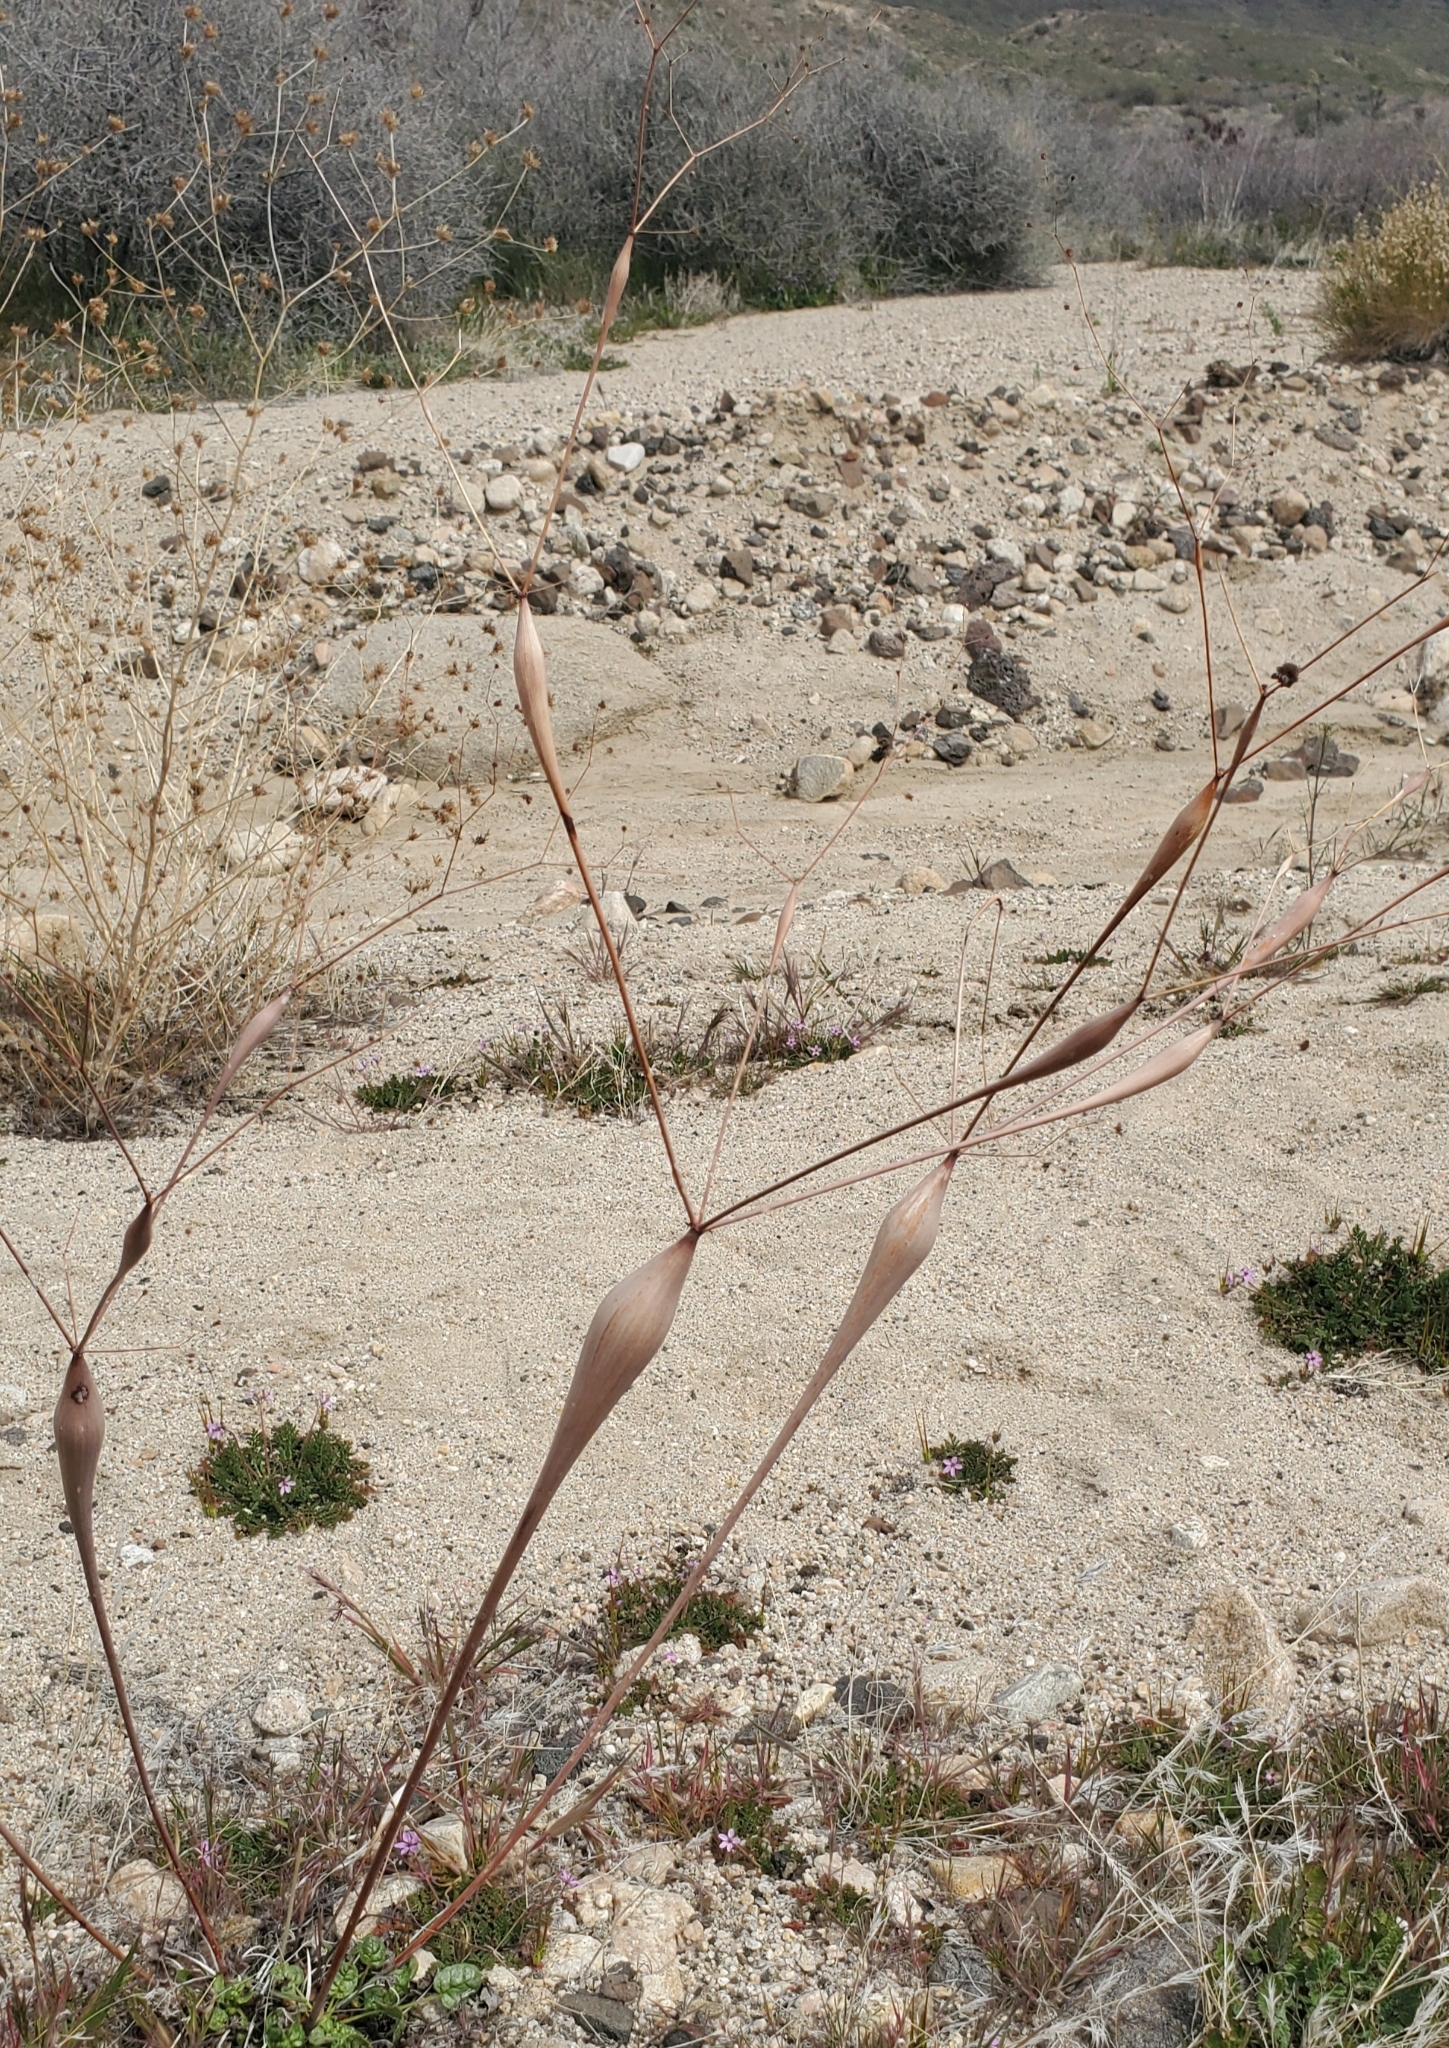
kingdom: Plantae
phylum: Tracheophyta
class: Magnoliopsida
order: Caryophyllales
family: Polygonaceae
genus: Eriogonum
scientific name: Eriogonum inflatum
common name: Desert trumpet
